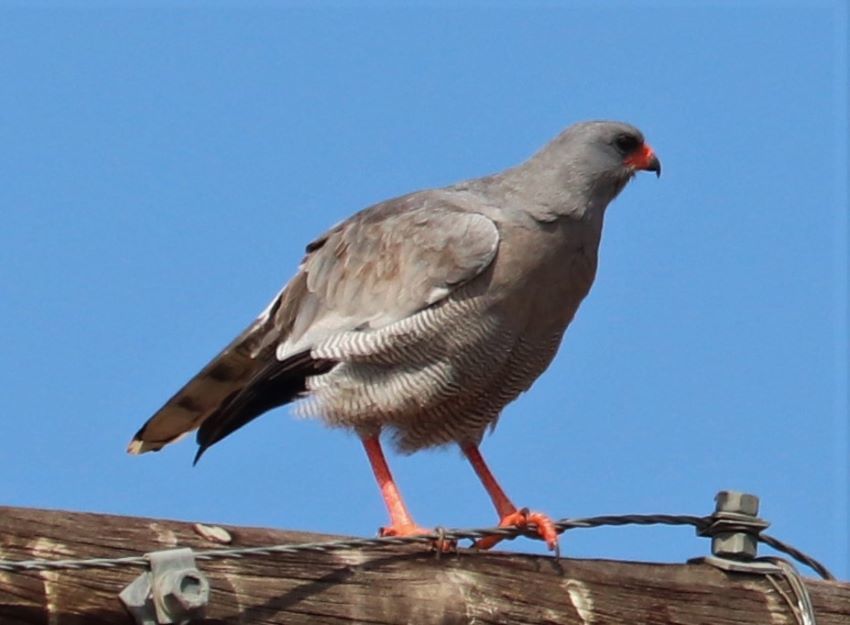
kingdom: Animalia
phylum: Chordata
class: Aves
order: Accipitriformes
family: Accipitridae
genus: Melierax
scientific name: Melierax canorus
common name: Pale chanting-goshawk
